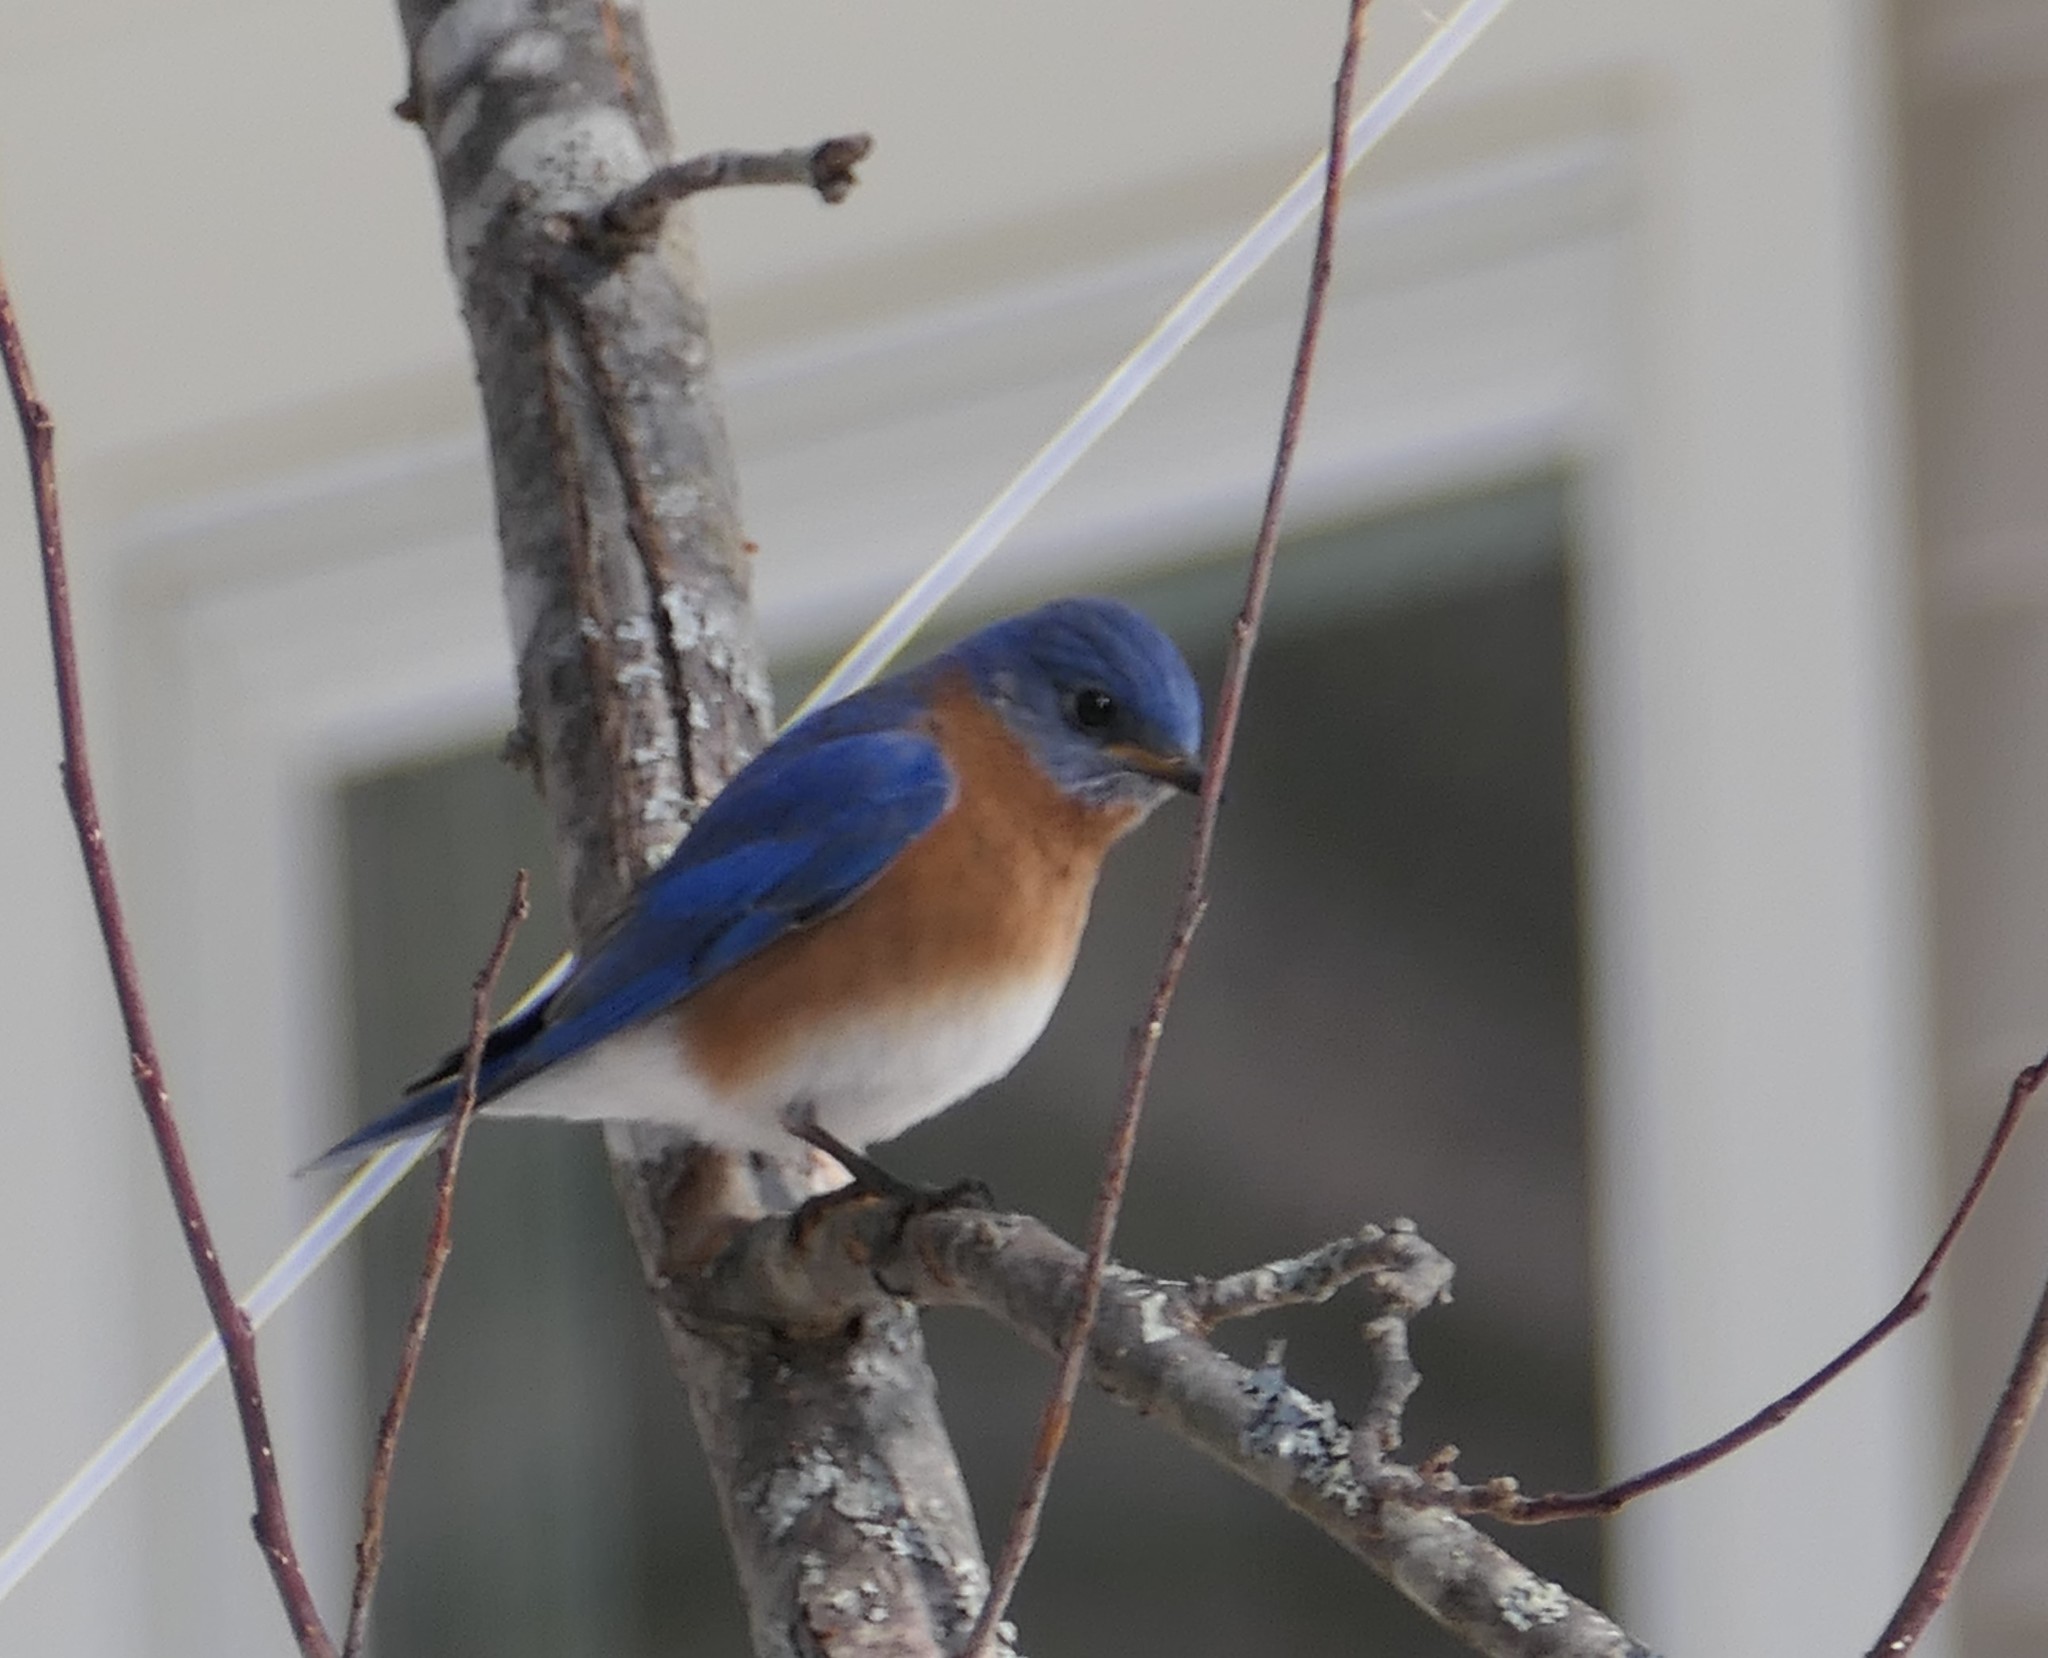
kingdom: Animalia
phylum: Chordata
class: Aves
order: Passeriformes
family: Turdidae
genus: Sialia
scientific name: Sialia sialis
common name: Eastern bluebird
